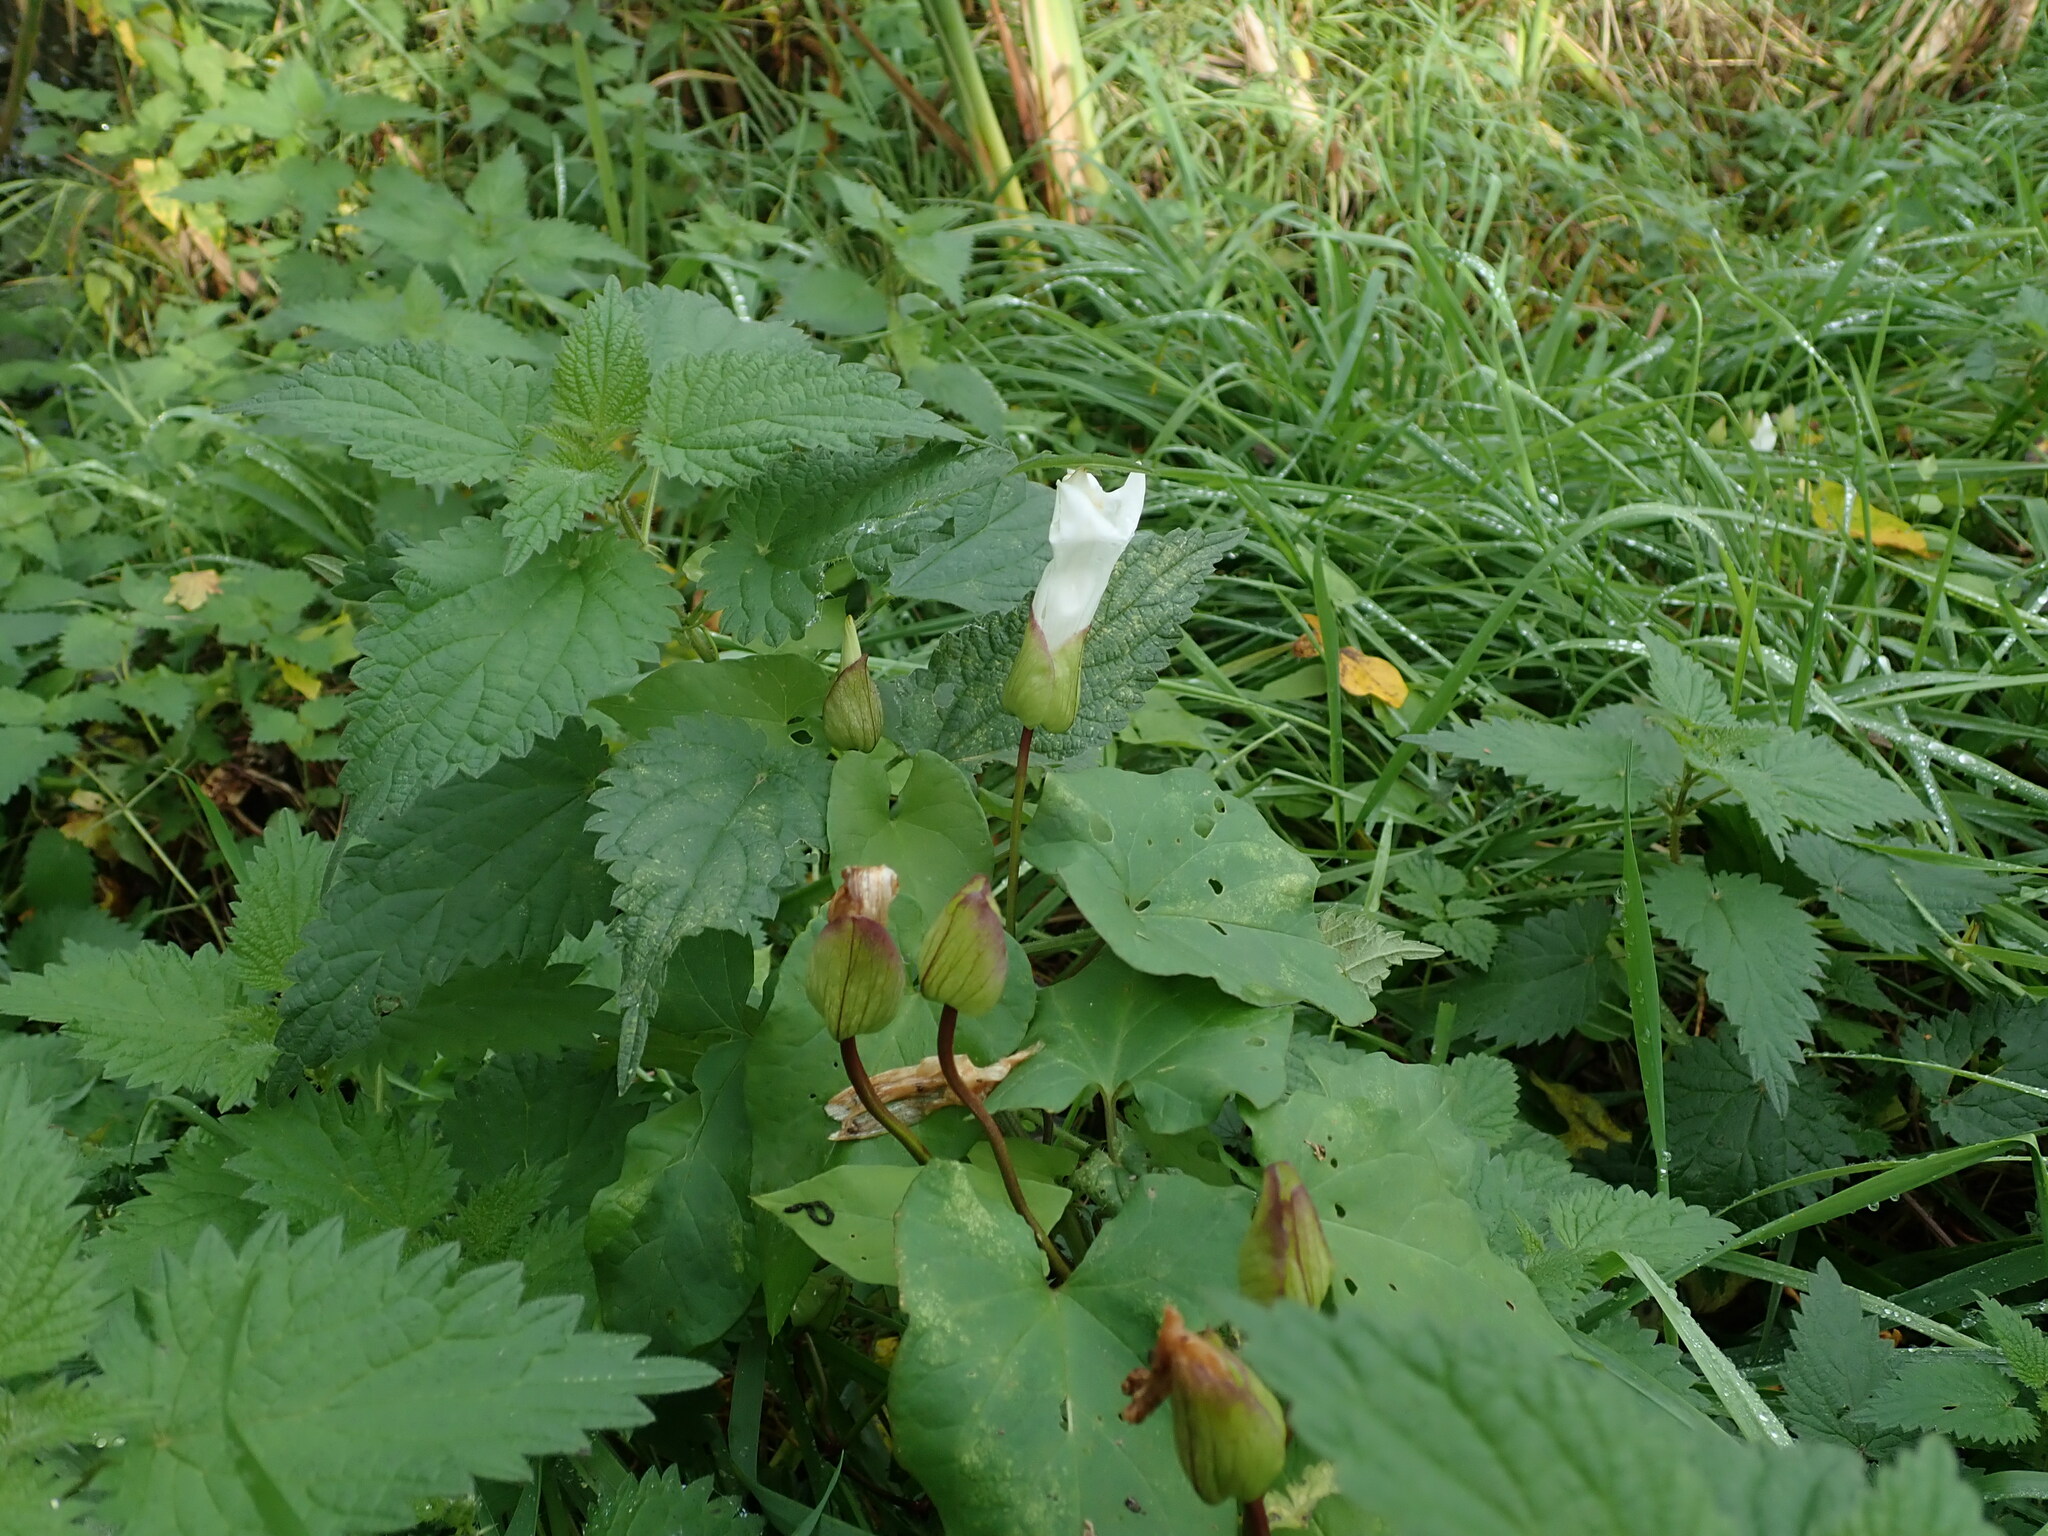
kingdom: Plantae
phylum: Tracheophyta
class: Magnoliopsida
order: Solanales
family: Convolvulaceae
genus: Calystegia
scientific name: Calystegia silvatica
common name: Large bindweed
